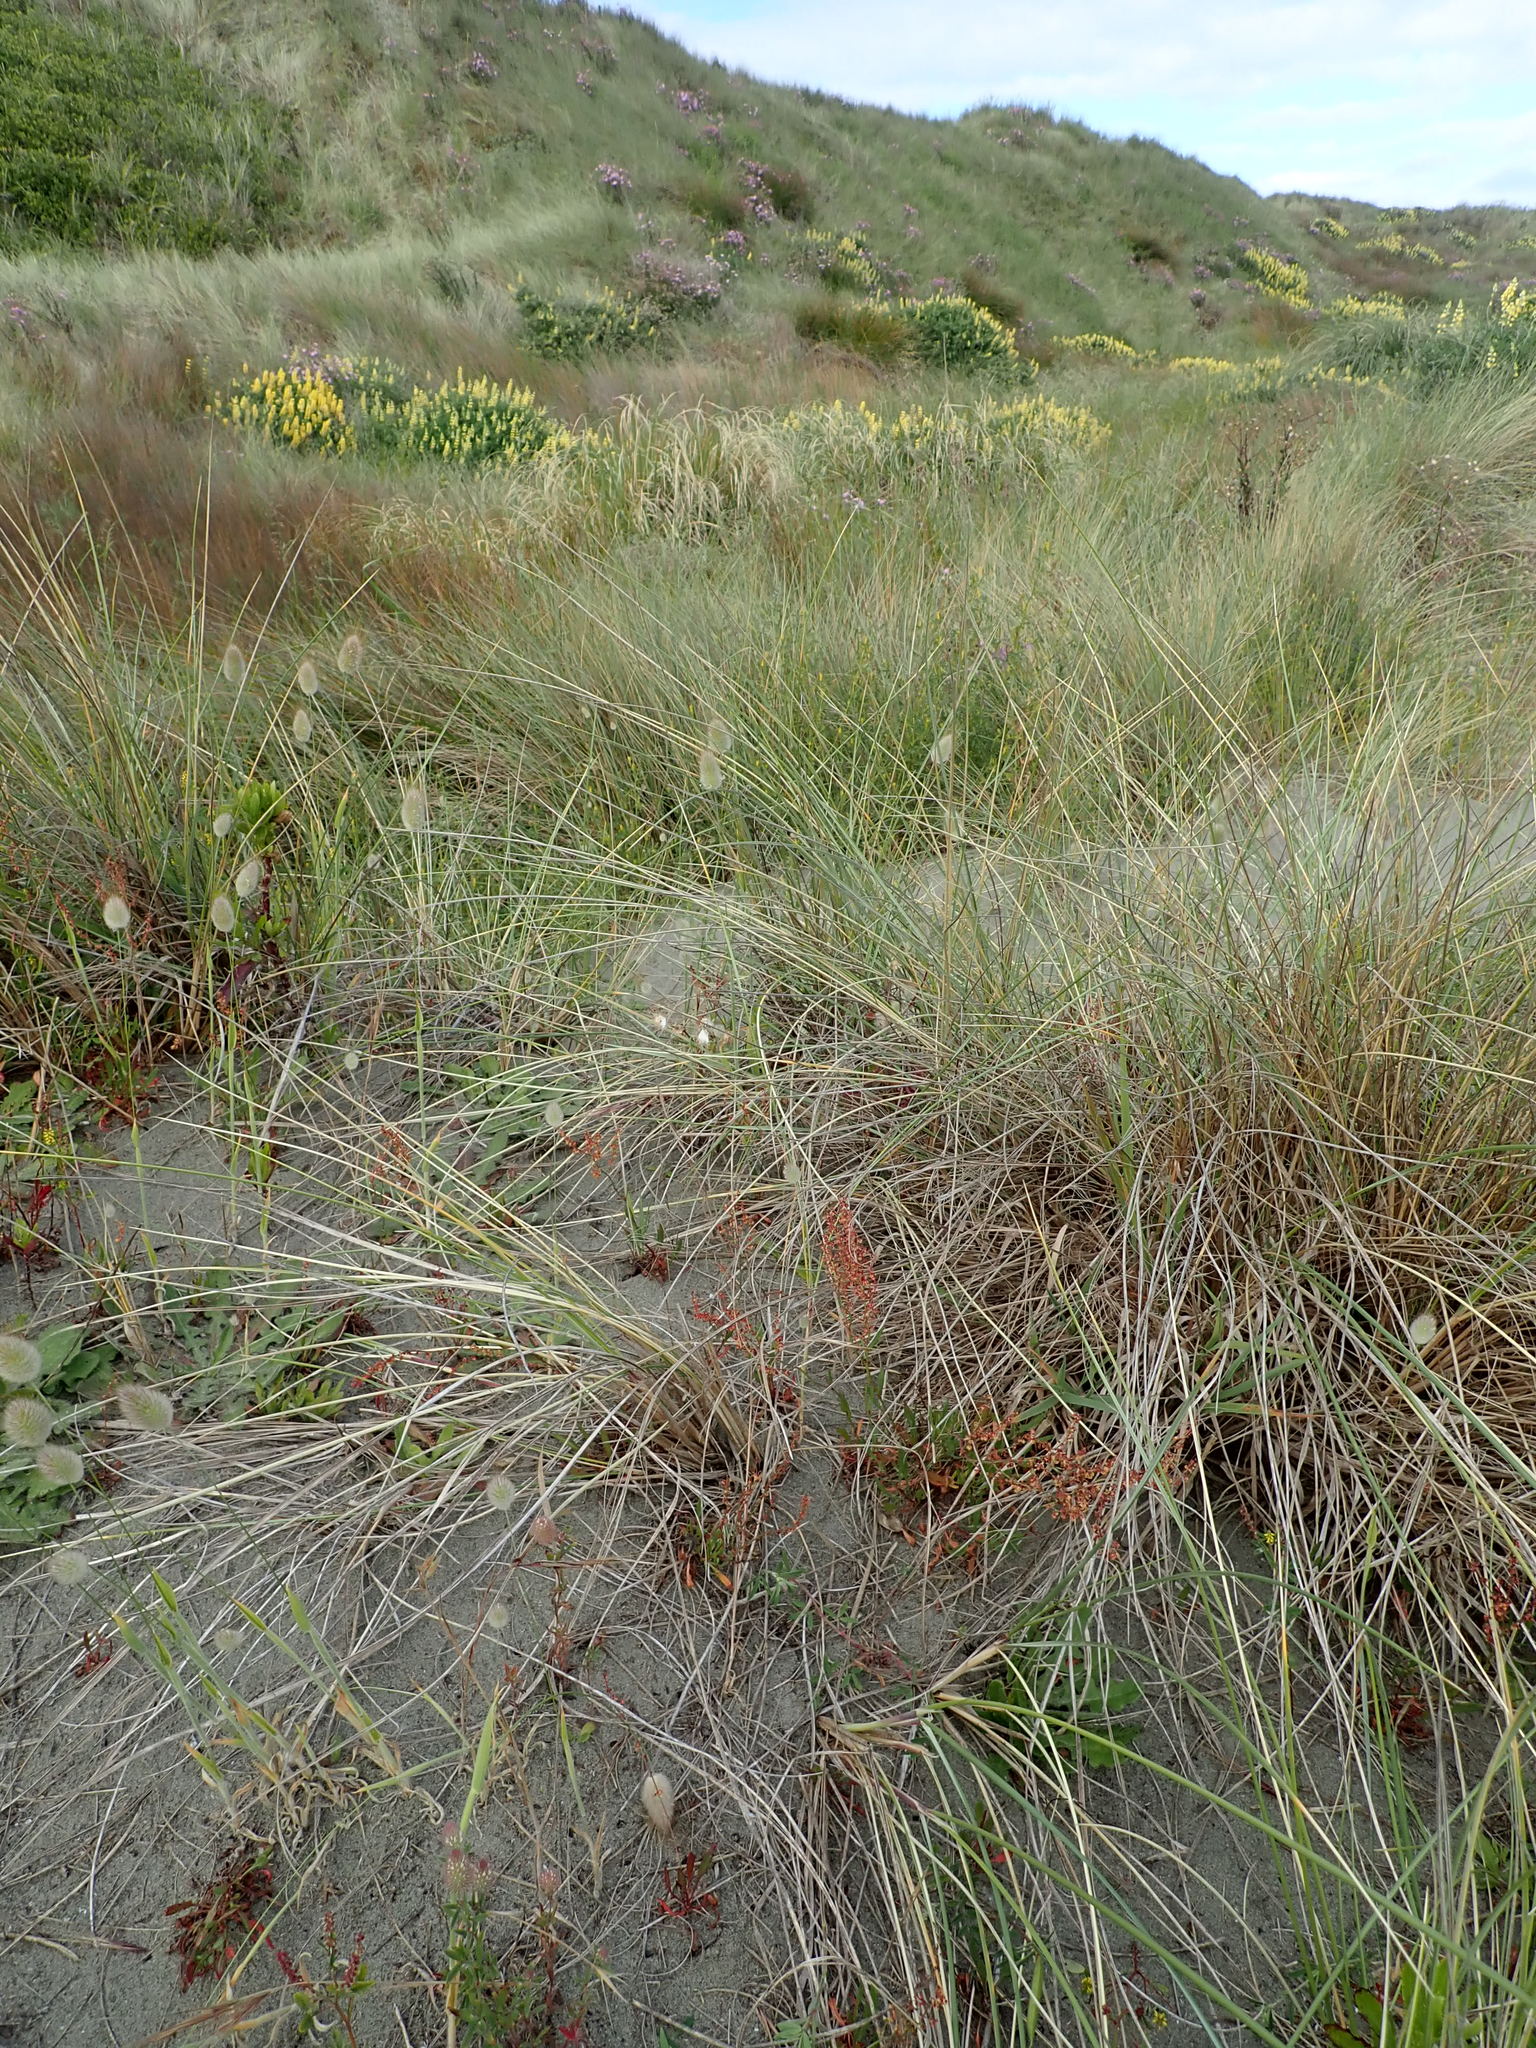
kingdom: Plantae
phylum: Tracheophyta
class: Magnoliopsida
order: Caryophyllales
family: Polygonaceae
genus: Rumex
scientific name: Rumex acetosella
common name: Common sheep sorrel
